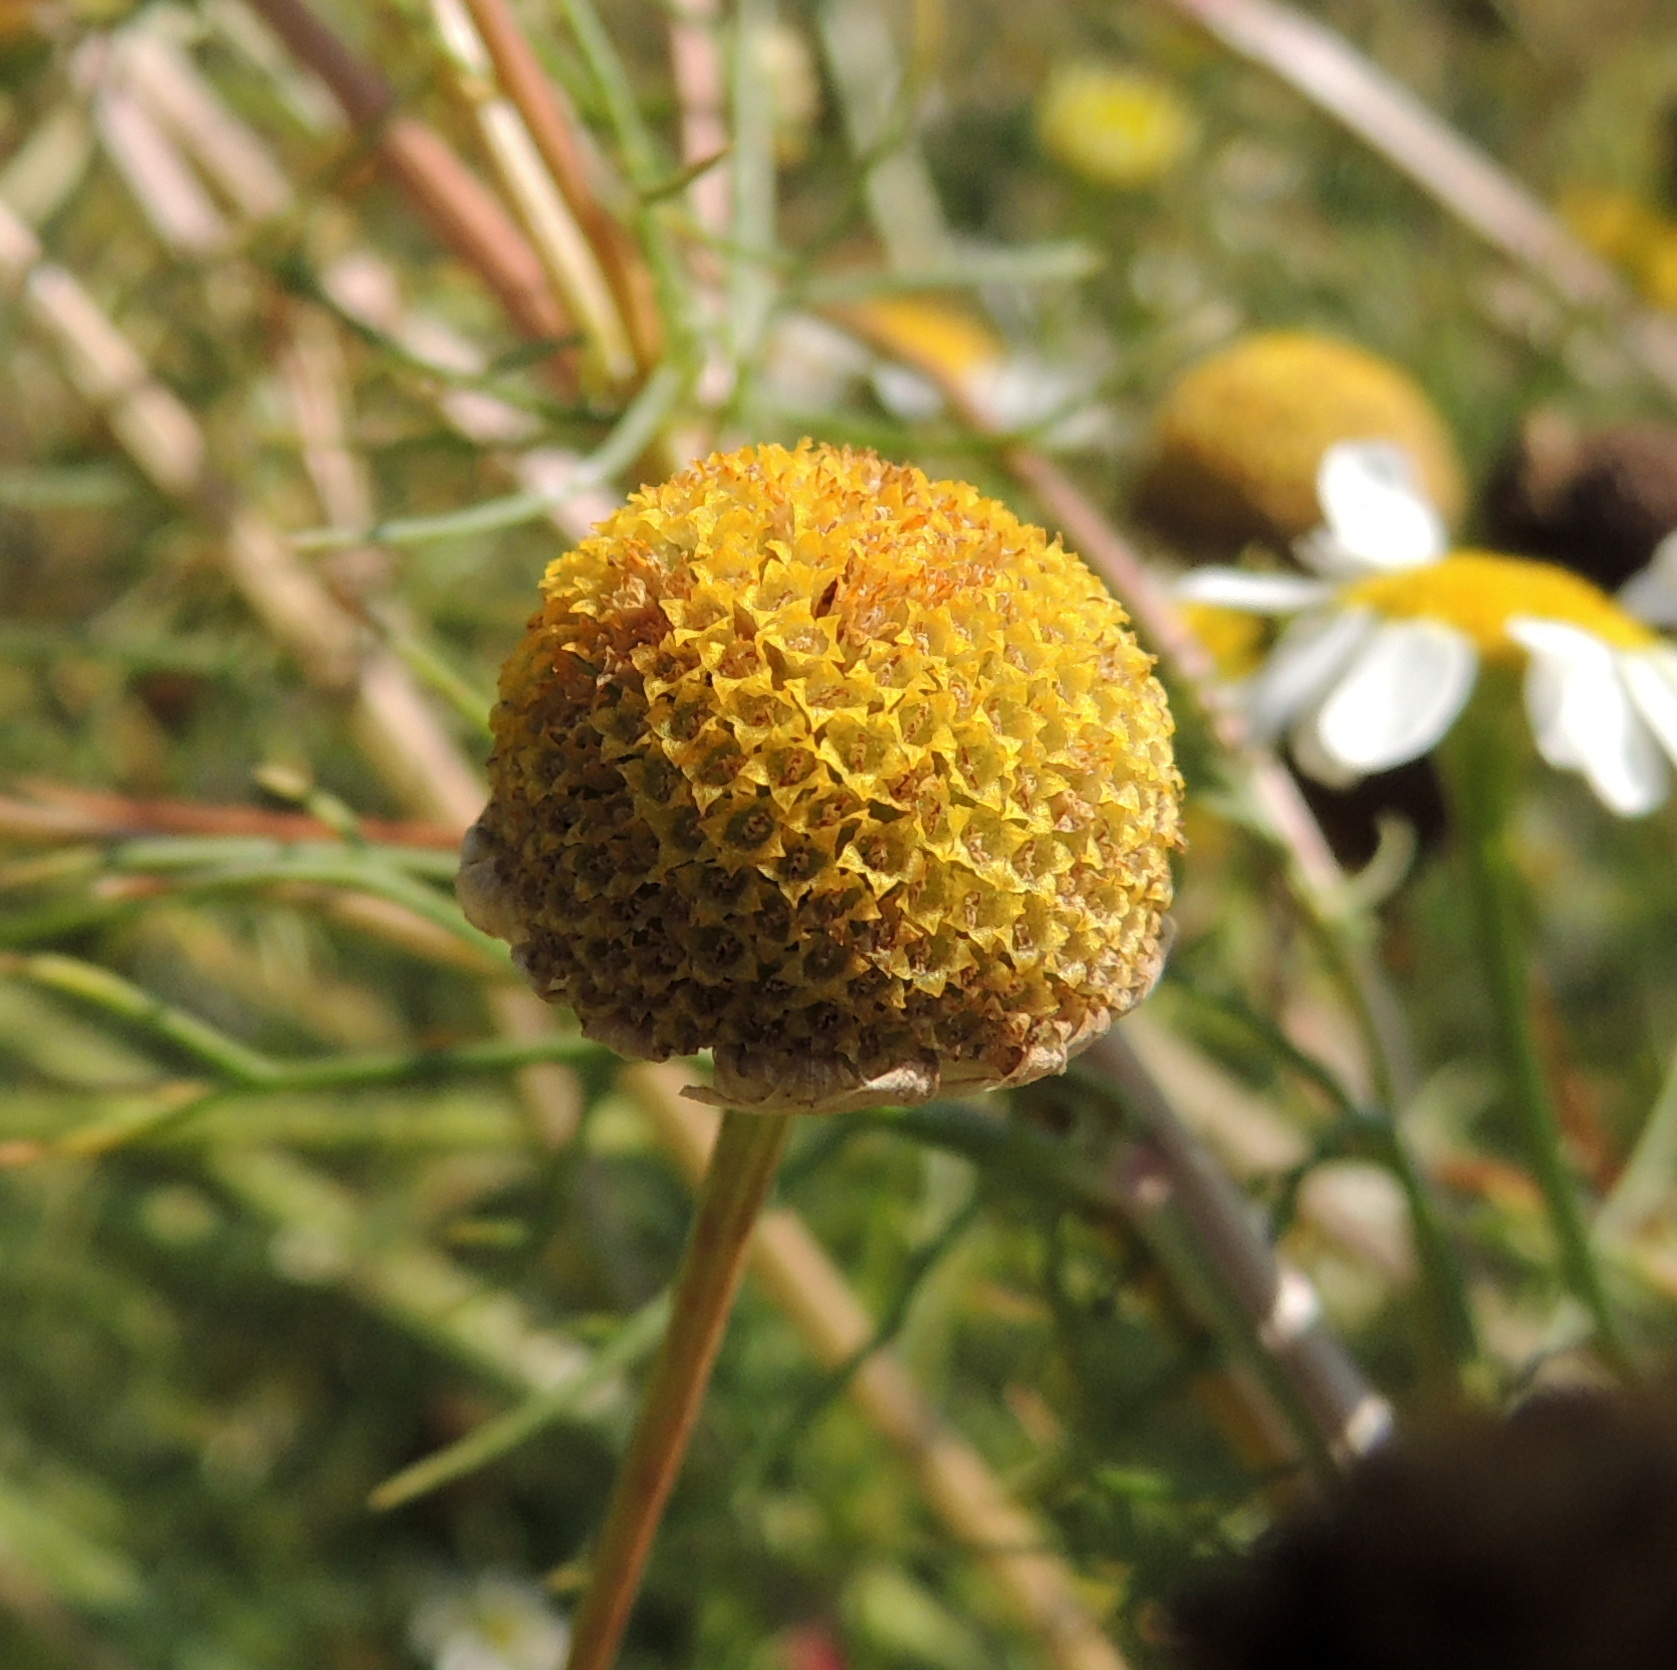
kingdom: Plantae
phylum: Tracheophyta
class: Magnoliopsida
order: Asterales
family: Asteraceae
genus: Tripleurospermum
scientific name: Tripleurospermum inodorum
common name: Scentless mayweed
